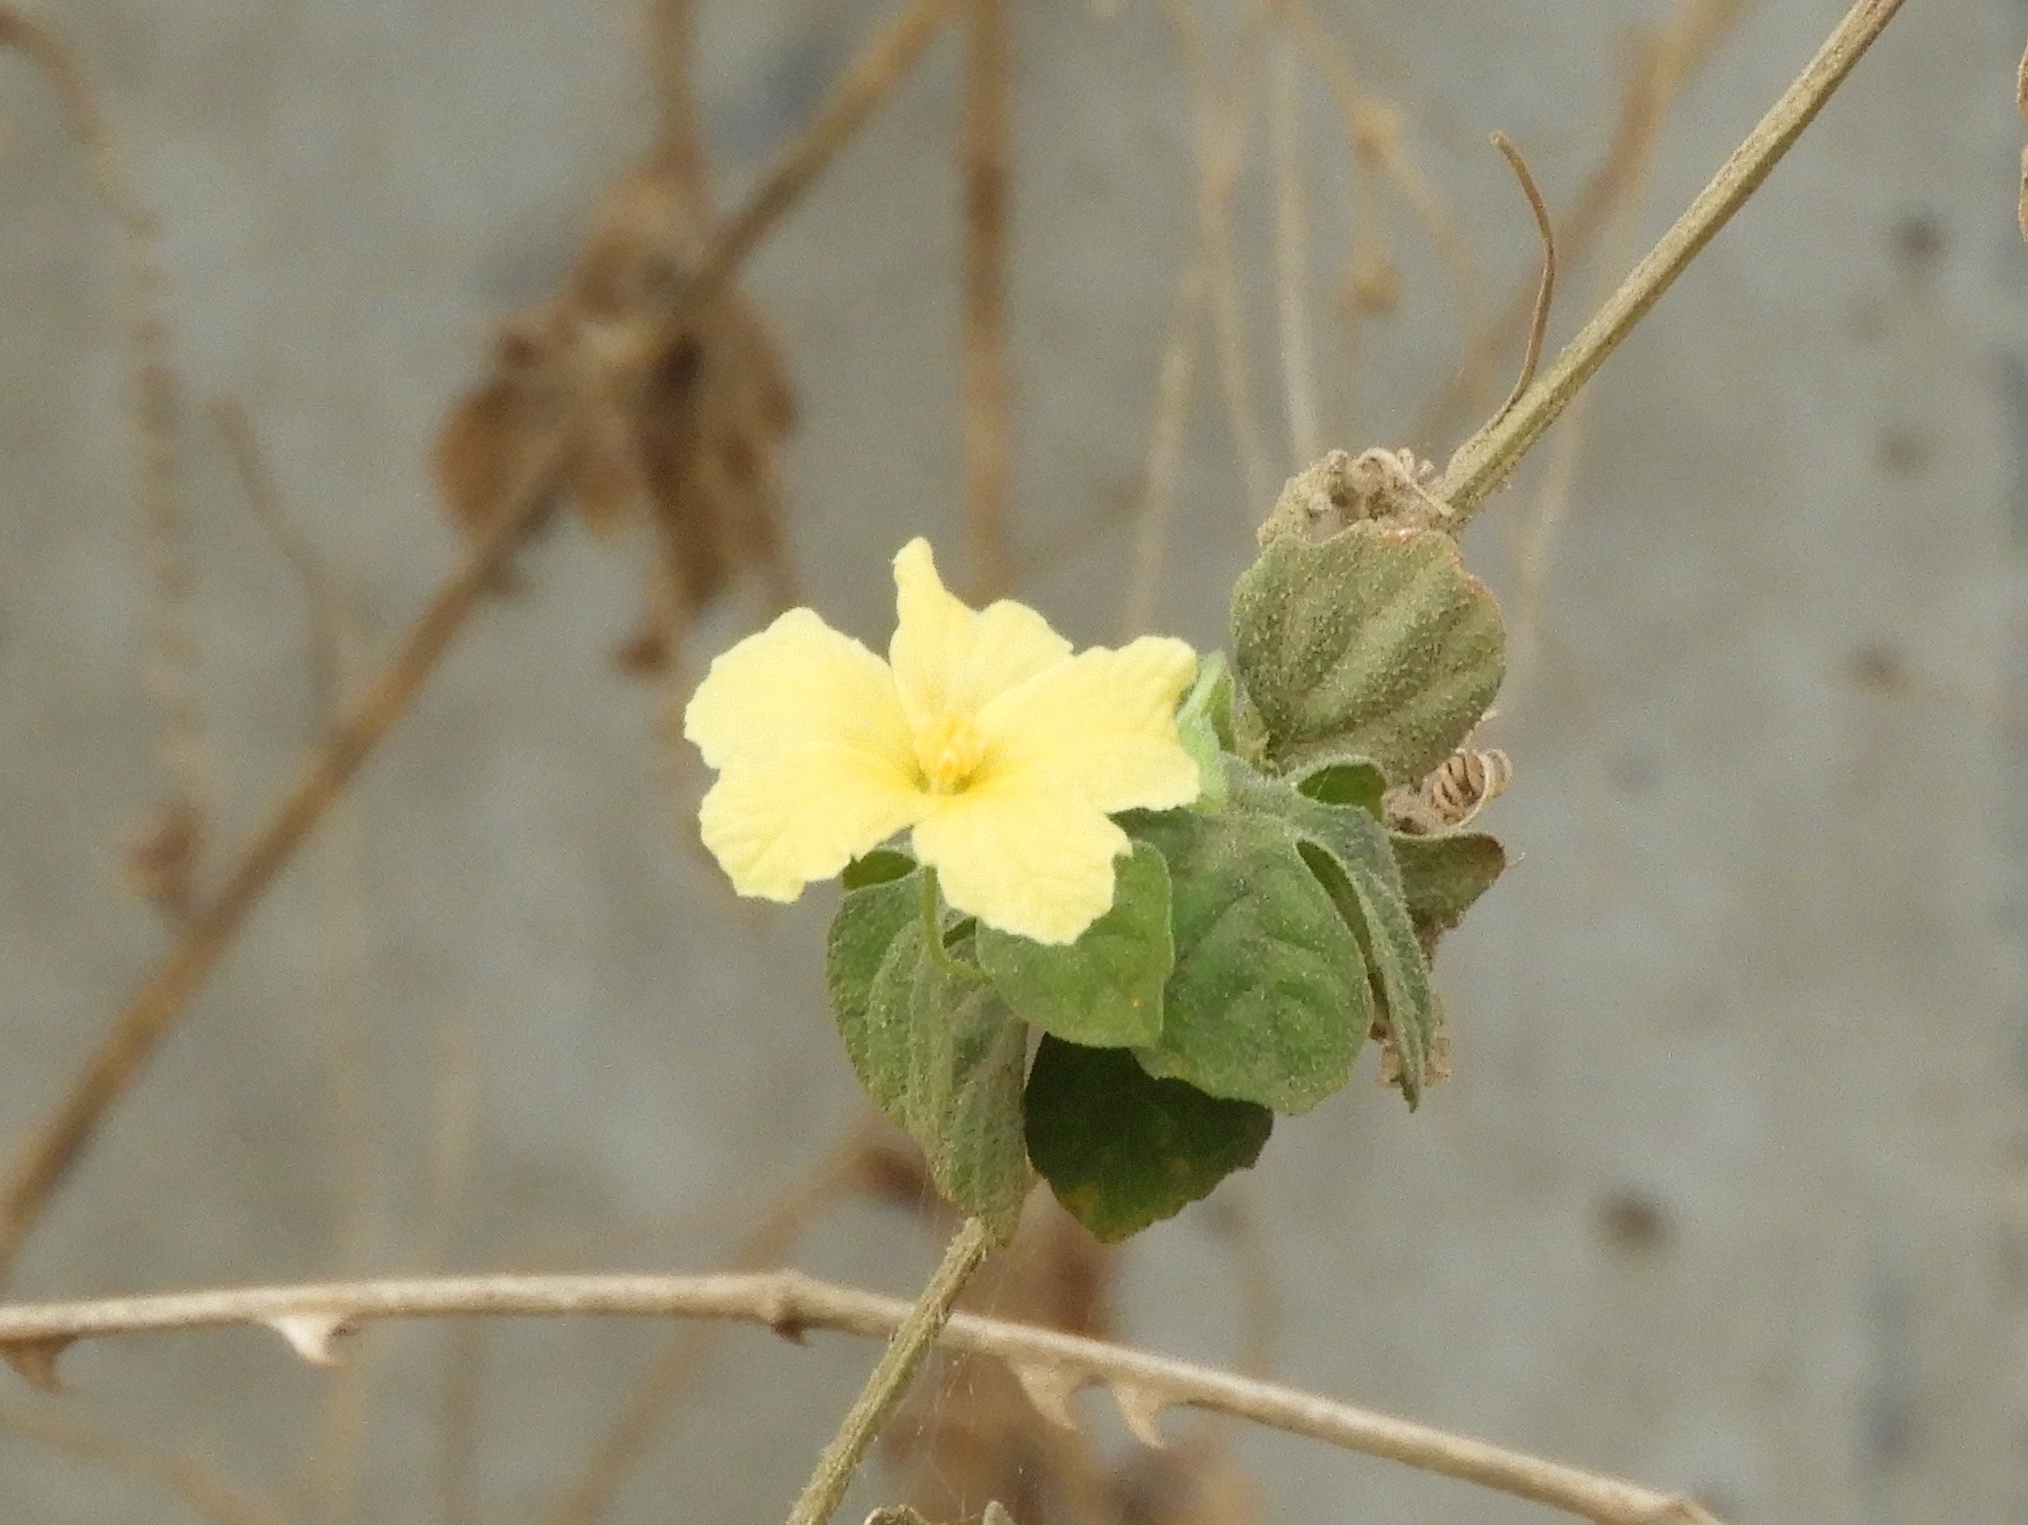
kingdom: Plantae
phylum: Tracheophyta
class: Magnoliopsida
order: Cucurbitales
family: Cucurbitaceae
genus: Momordica
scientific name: Momordica charantia
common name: Balsampear
